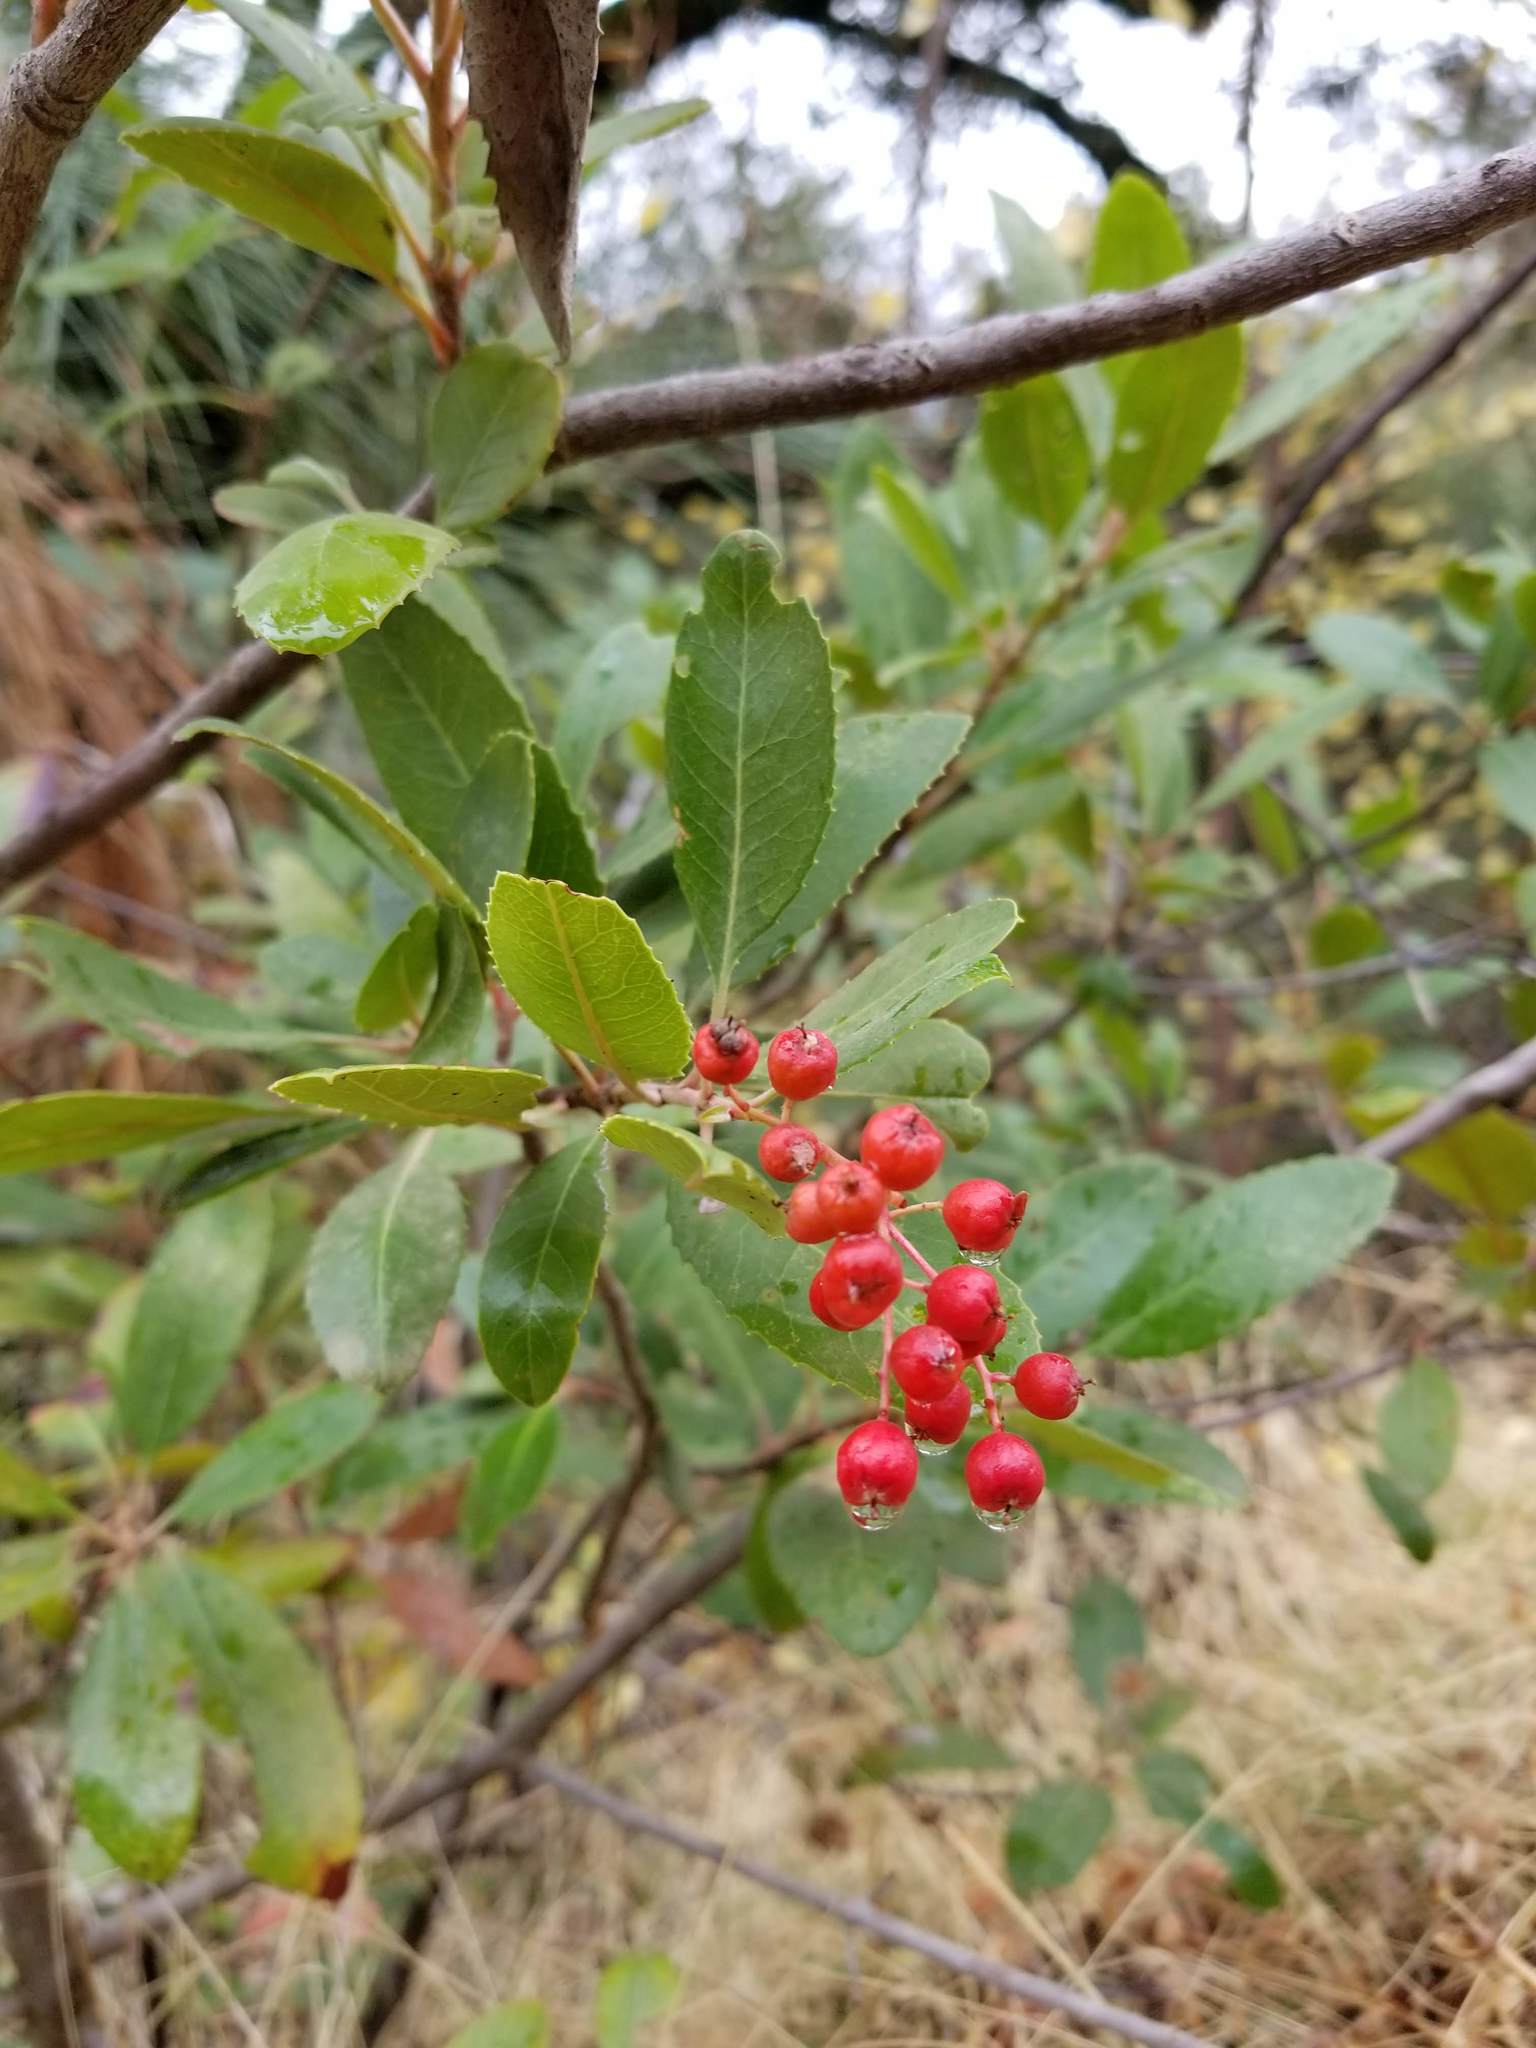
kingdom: Plantae
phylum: Tracheophyta
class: Magnoliopsida
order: Rosales
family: Rosaceae
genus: Heteromeles
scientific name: Heteromeles arbutifolia
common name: California-holly
